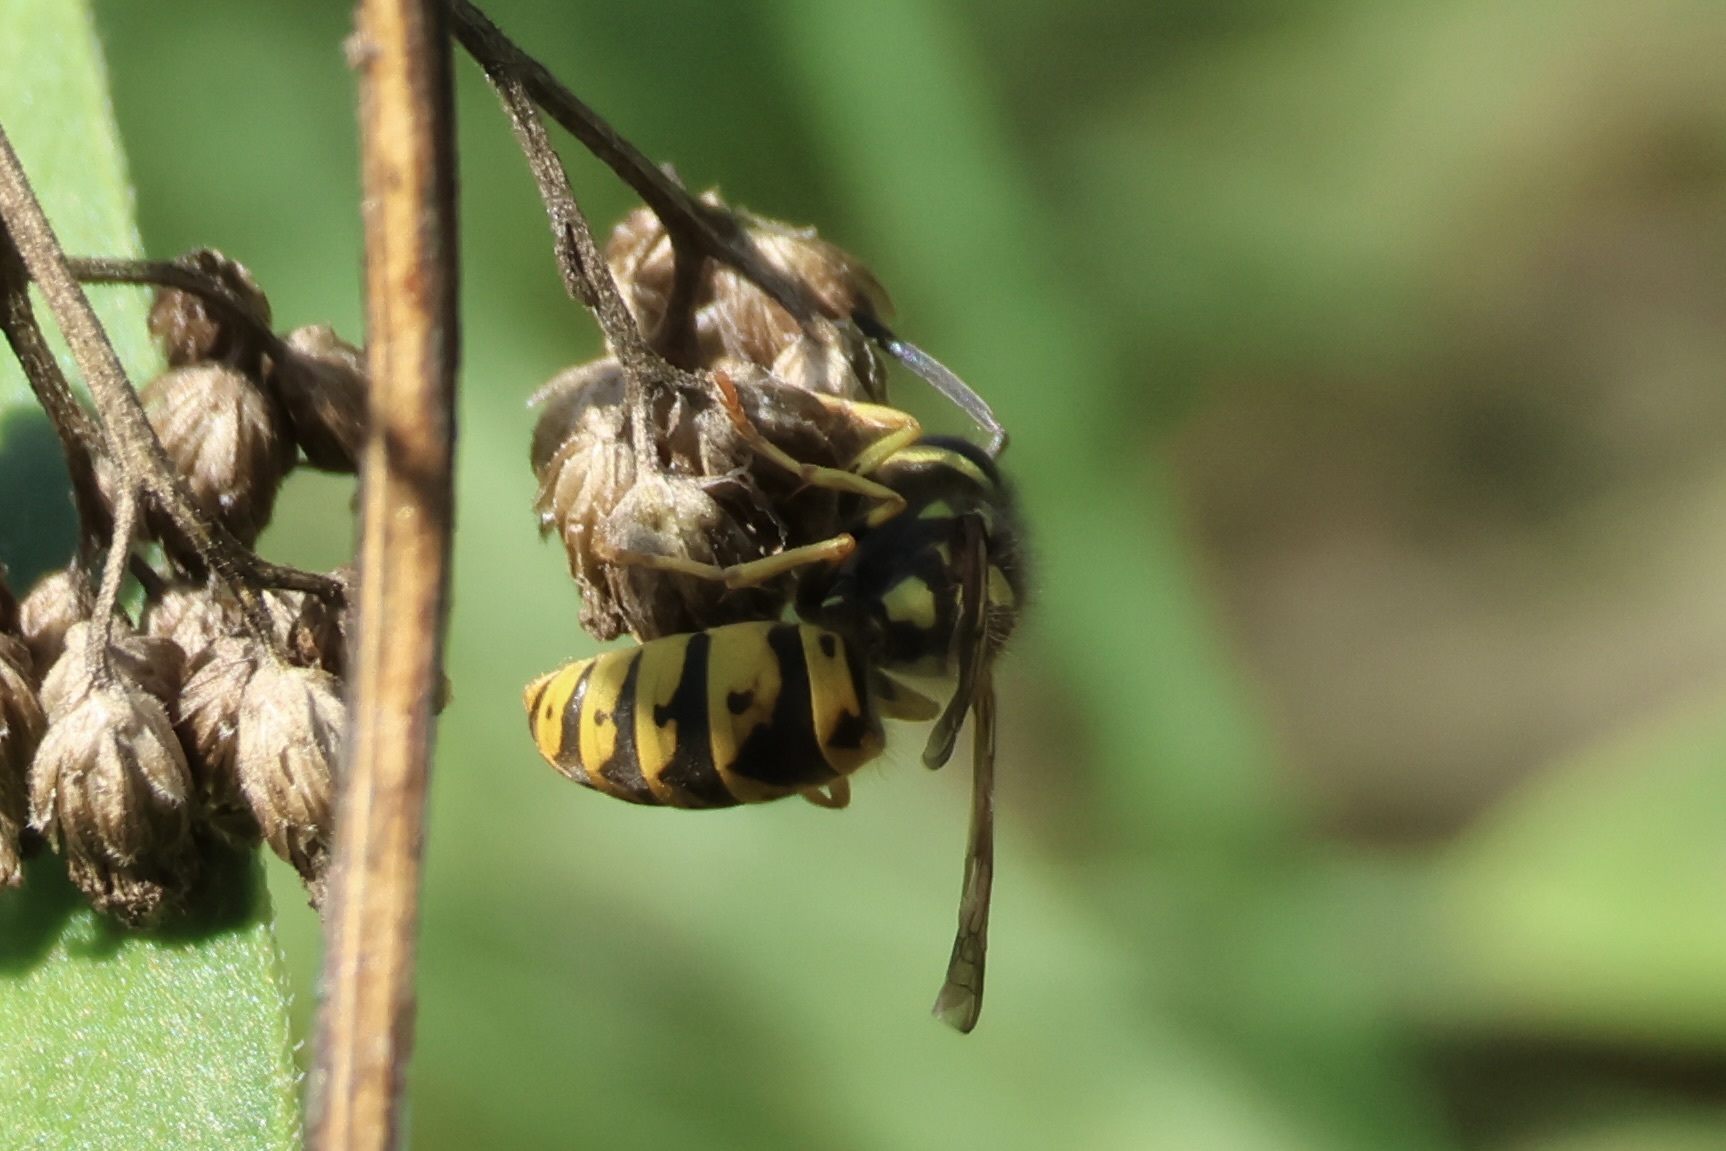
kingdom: Animalia
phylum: Arthropoda
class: Insecta
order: Hymenoptera
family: Vespidae
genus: Vespula
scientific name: Vespula germanica
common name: German wasp
